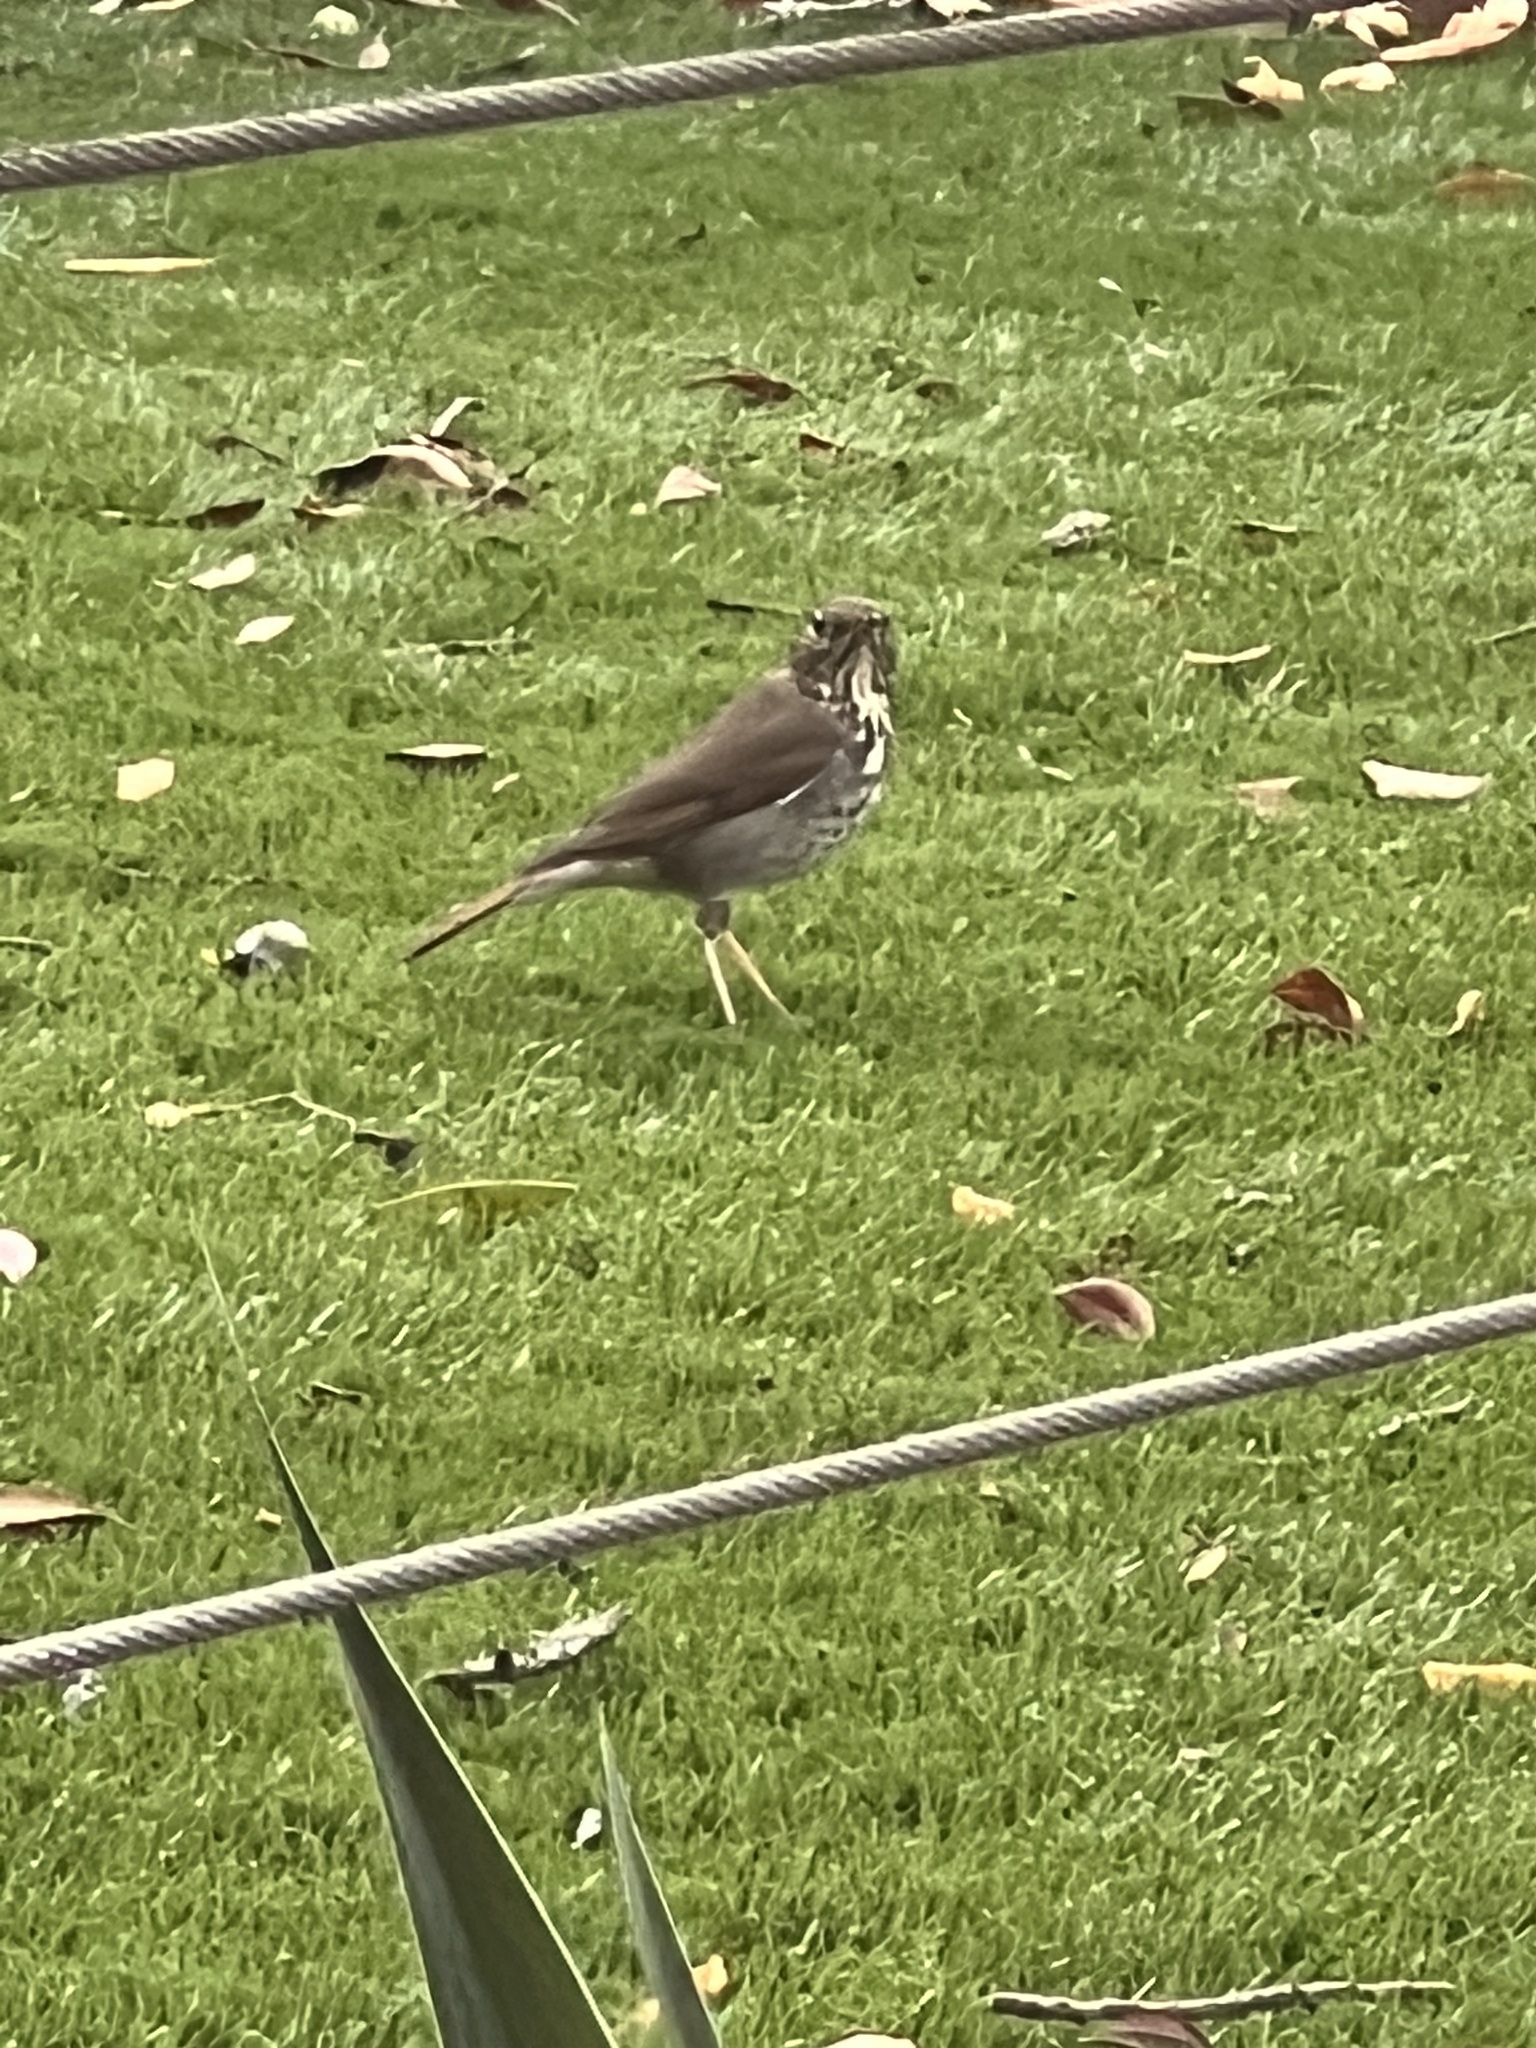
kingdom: Animalia
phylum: Chordata
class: Aves
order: Passeriformes
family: Turdidae
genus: Catharus
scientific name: Catharus guttatus
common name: Hermit thrush
